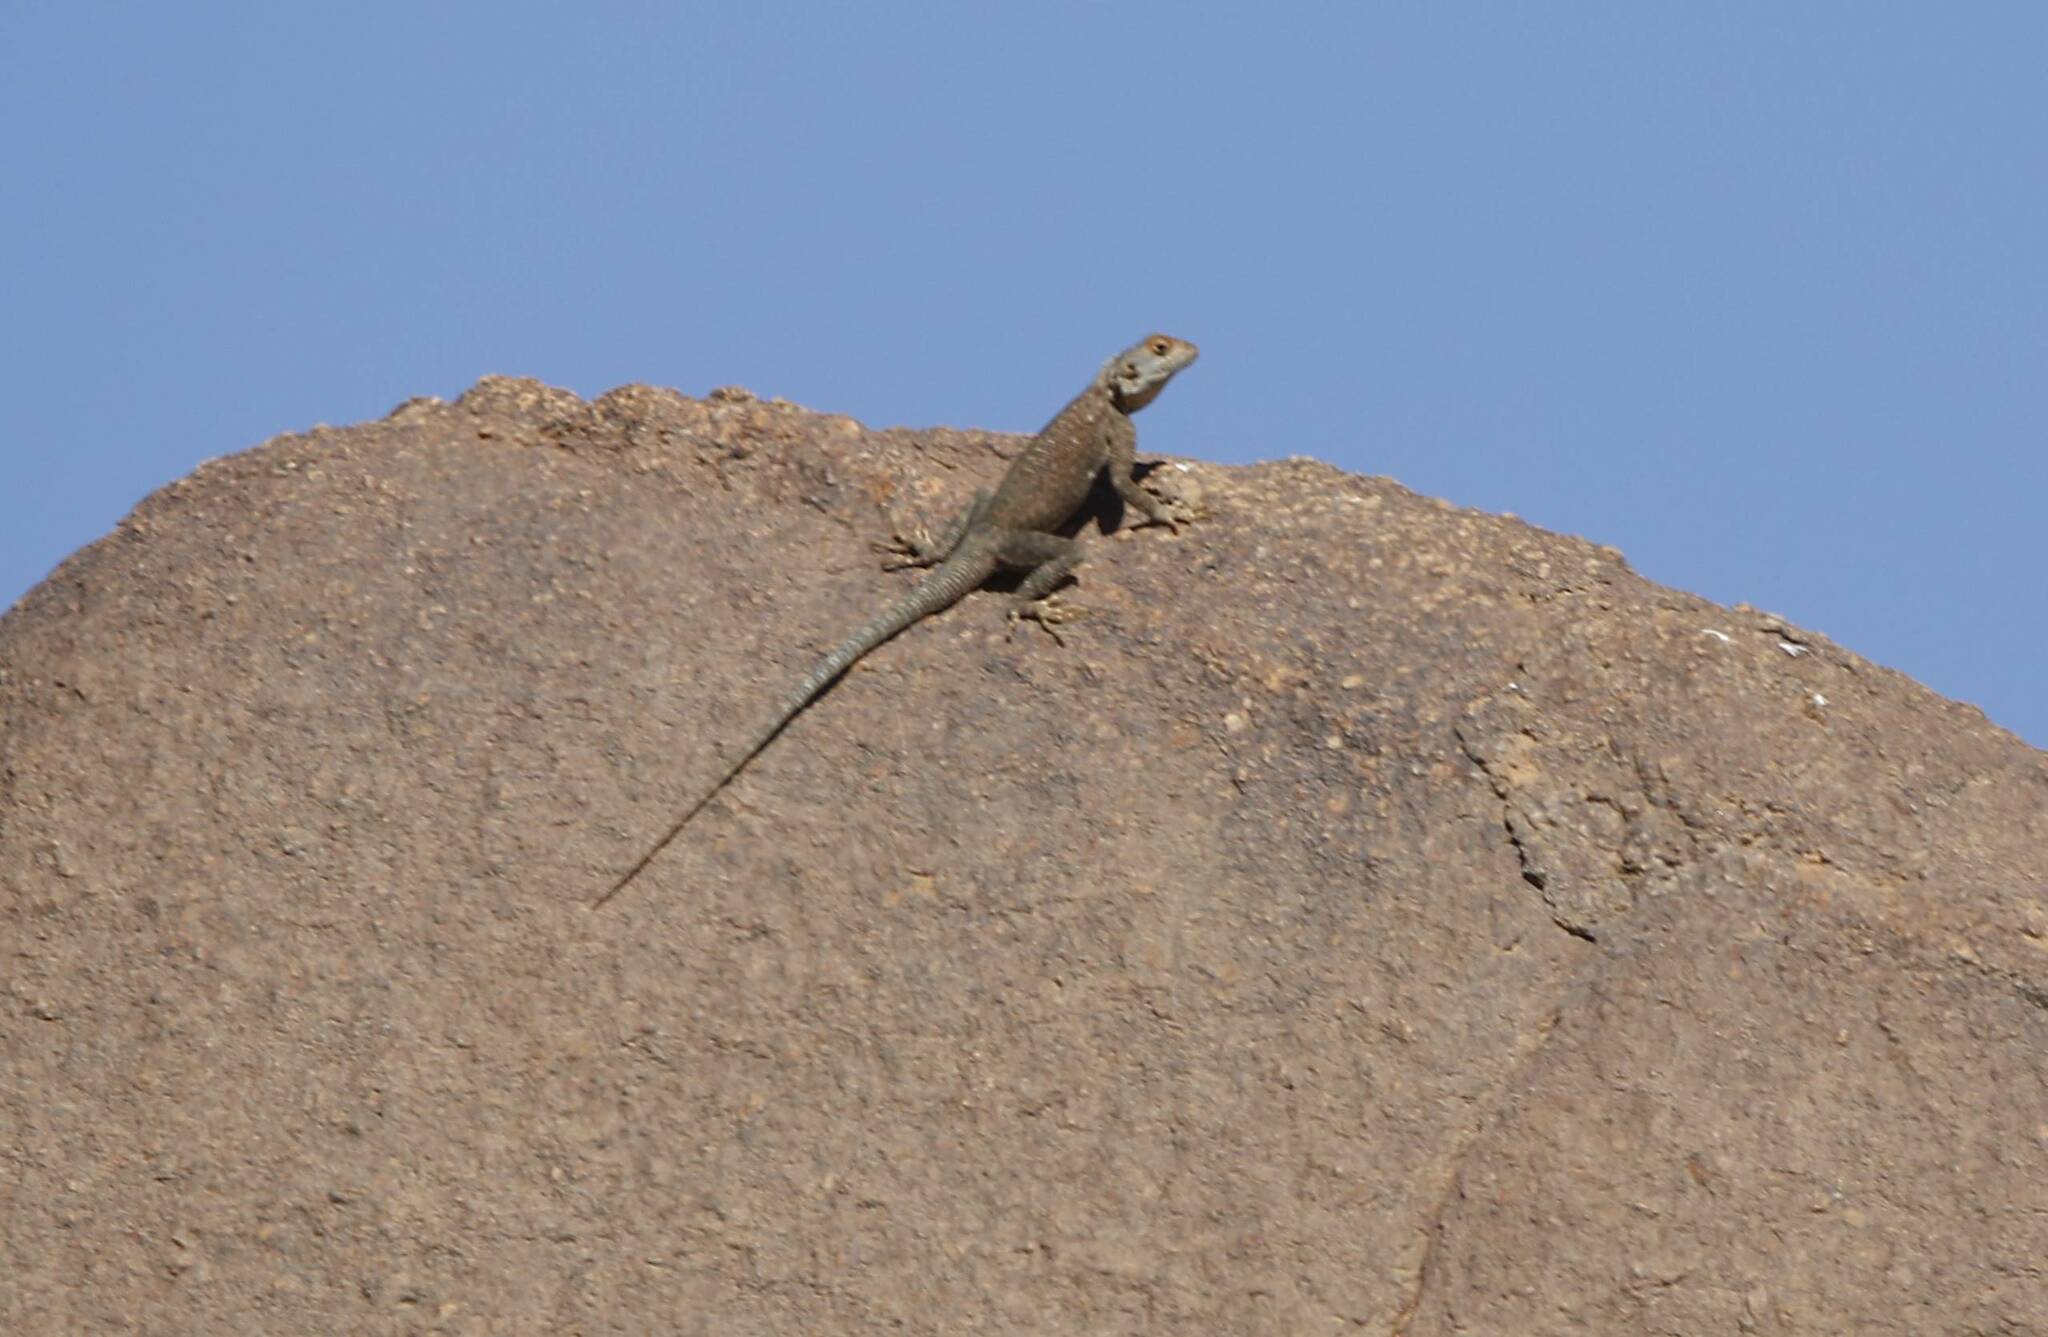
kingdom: Animalia
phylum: Chordata
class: Squamata
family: Agamidae
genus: Agama
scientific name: Agama impalearis
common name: Bibron's agama
